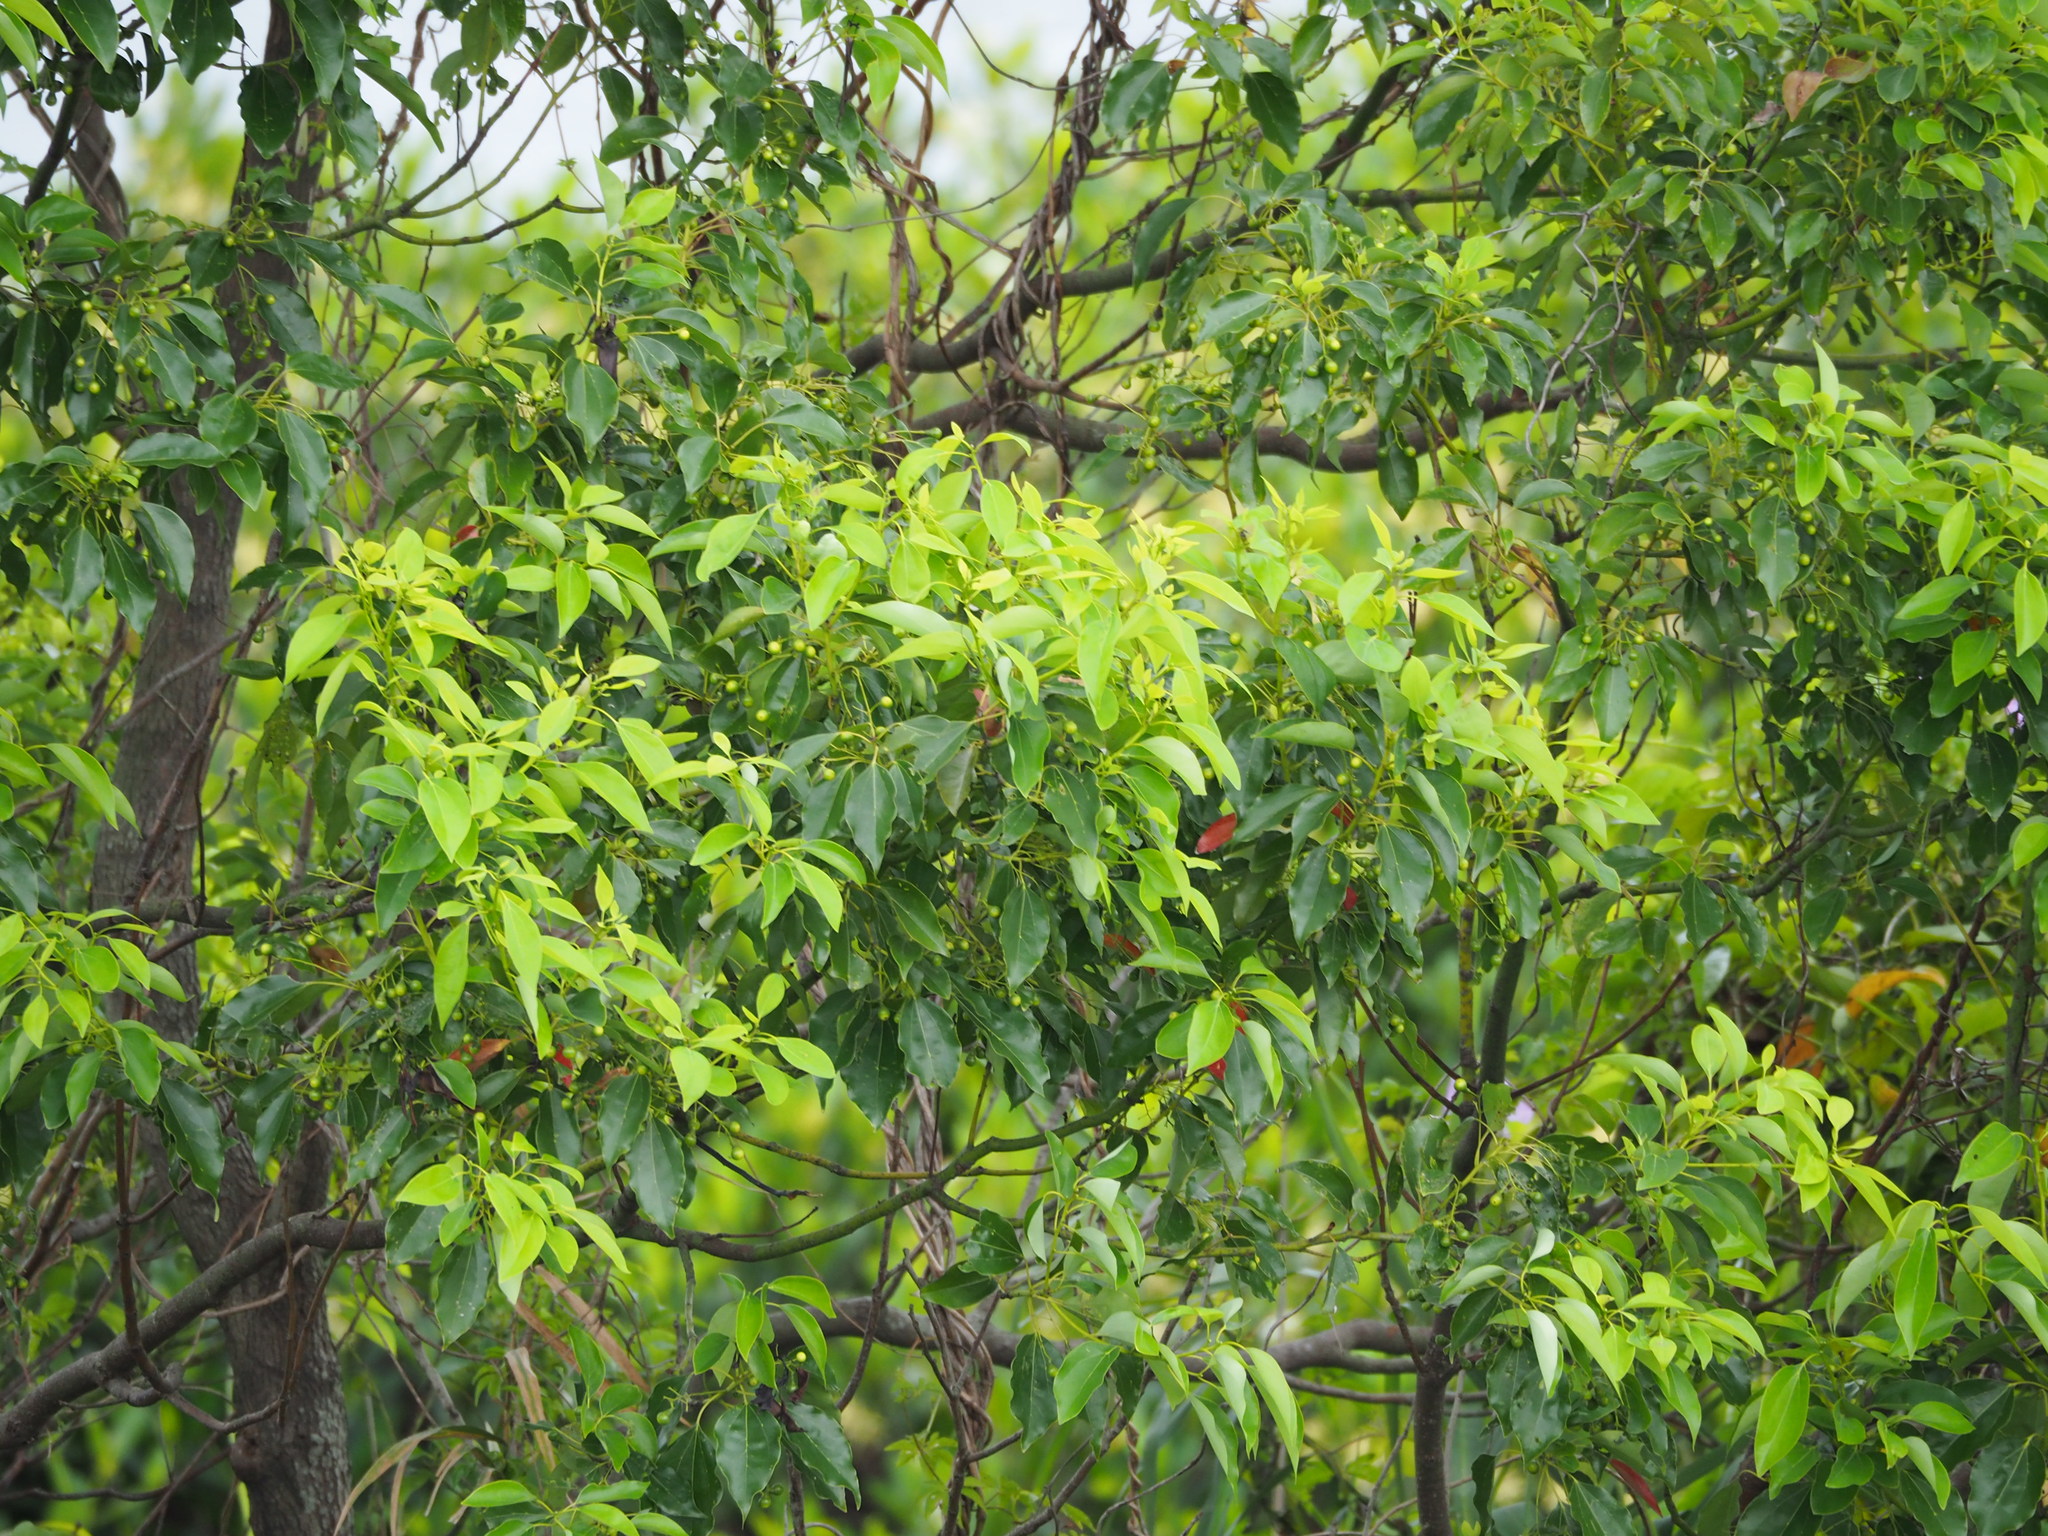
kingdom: Plantae
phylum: Tracheophyta
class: Magnoliopsida
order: Laurales
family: Lauraceae
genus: Cinnamomum
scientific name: Cinnamomum camphora
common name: Camphortree
